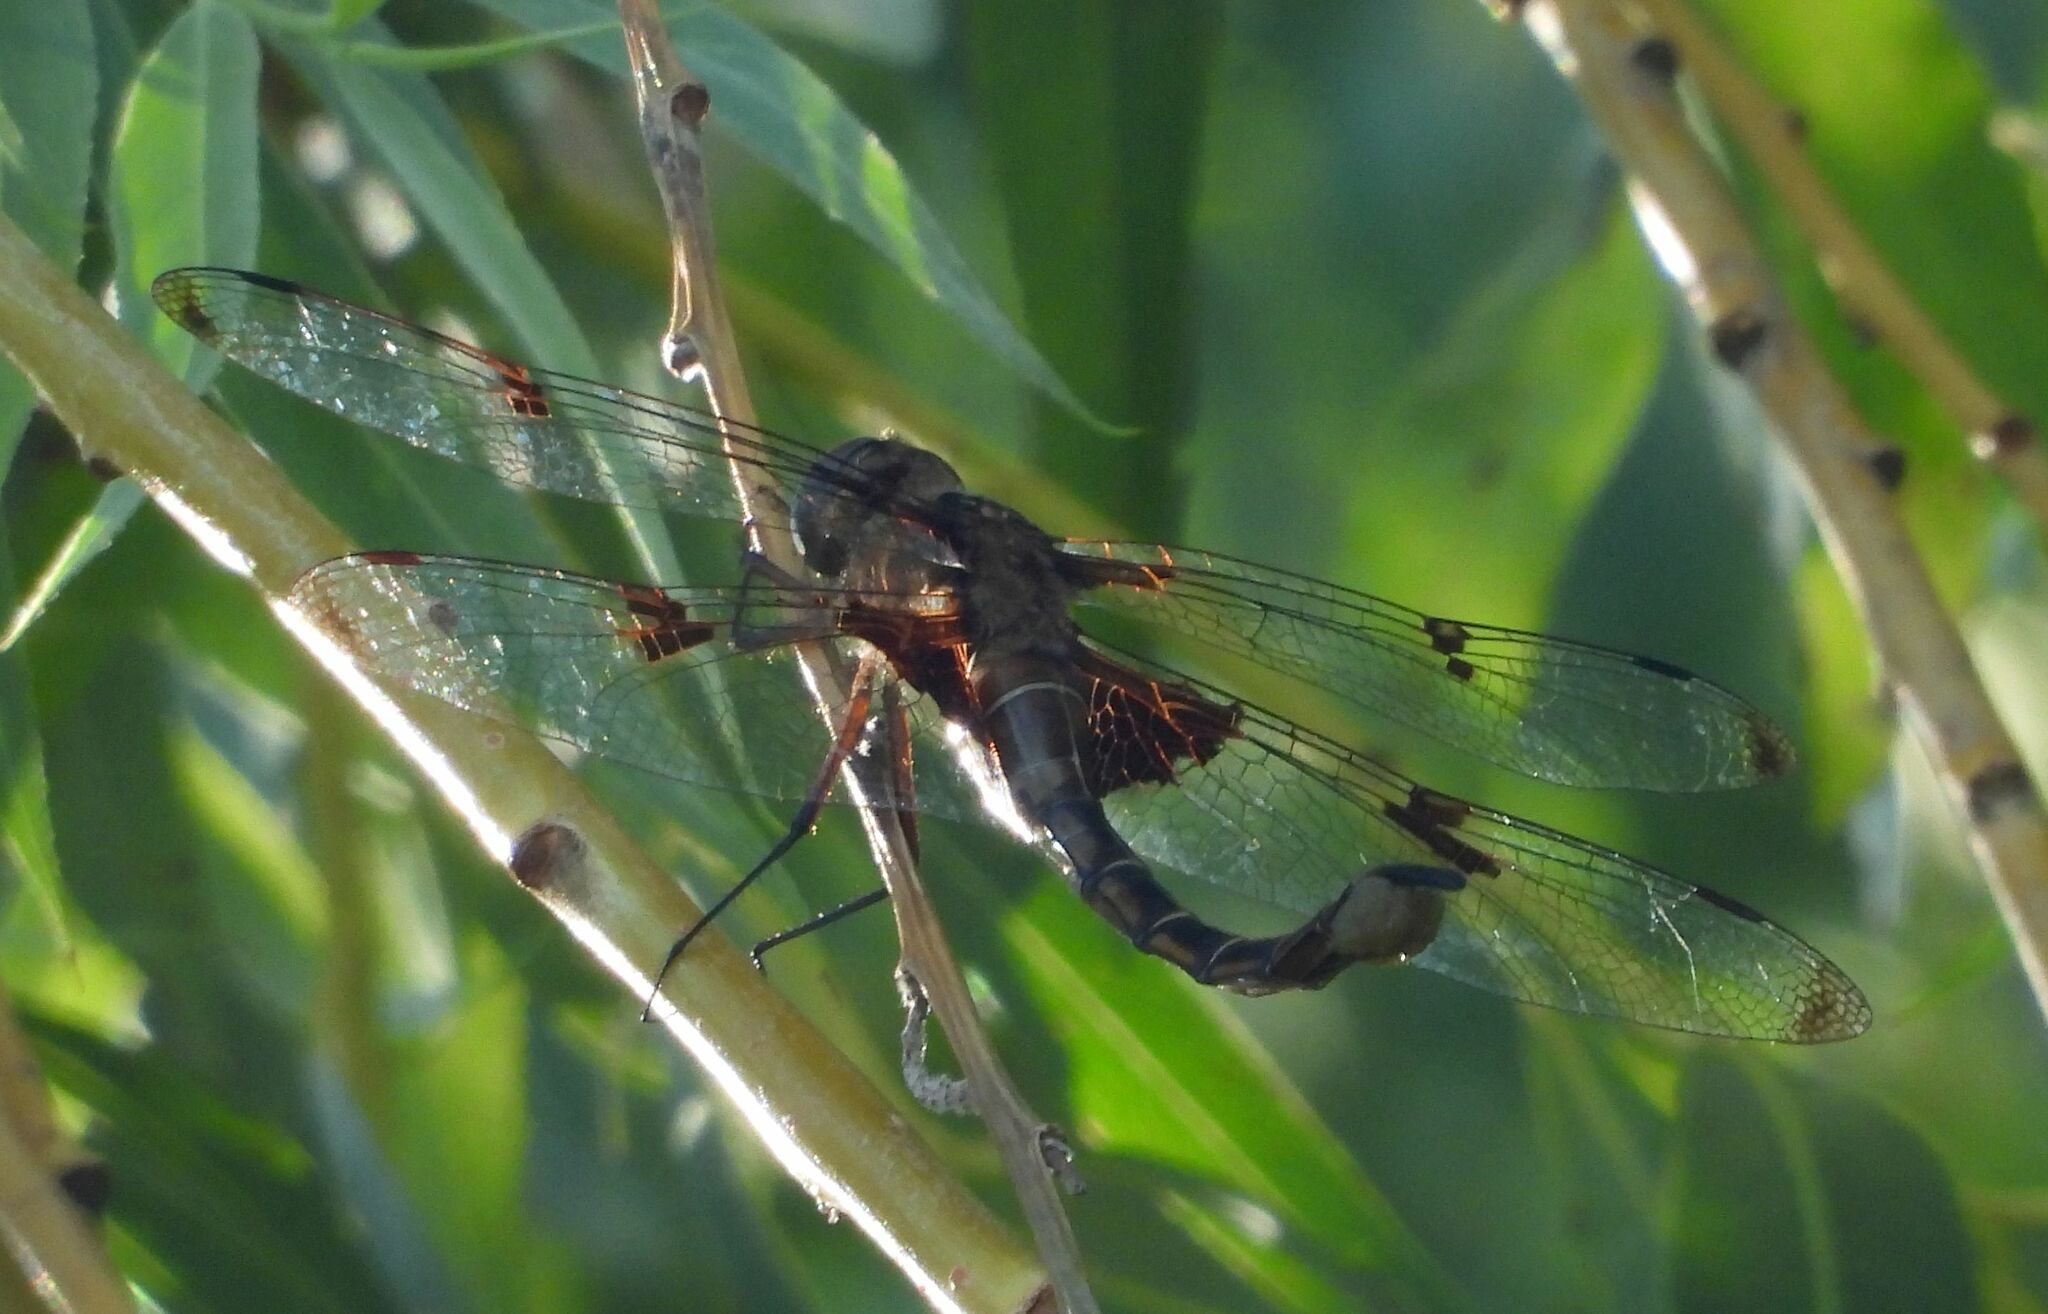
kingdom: Animalia
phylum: Arthropoda
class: Insecta
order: Odonata
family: Corduliidae
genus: Epitheca
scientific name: Epitheca princeps
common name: Prince baskettail
